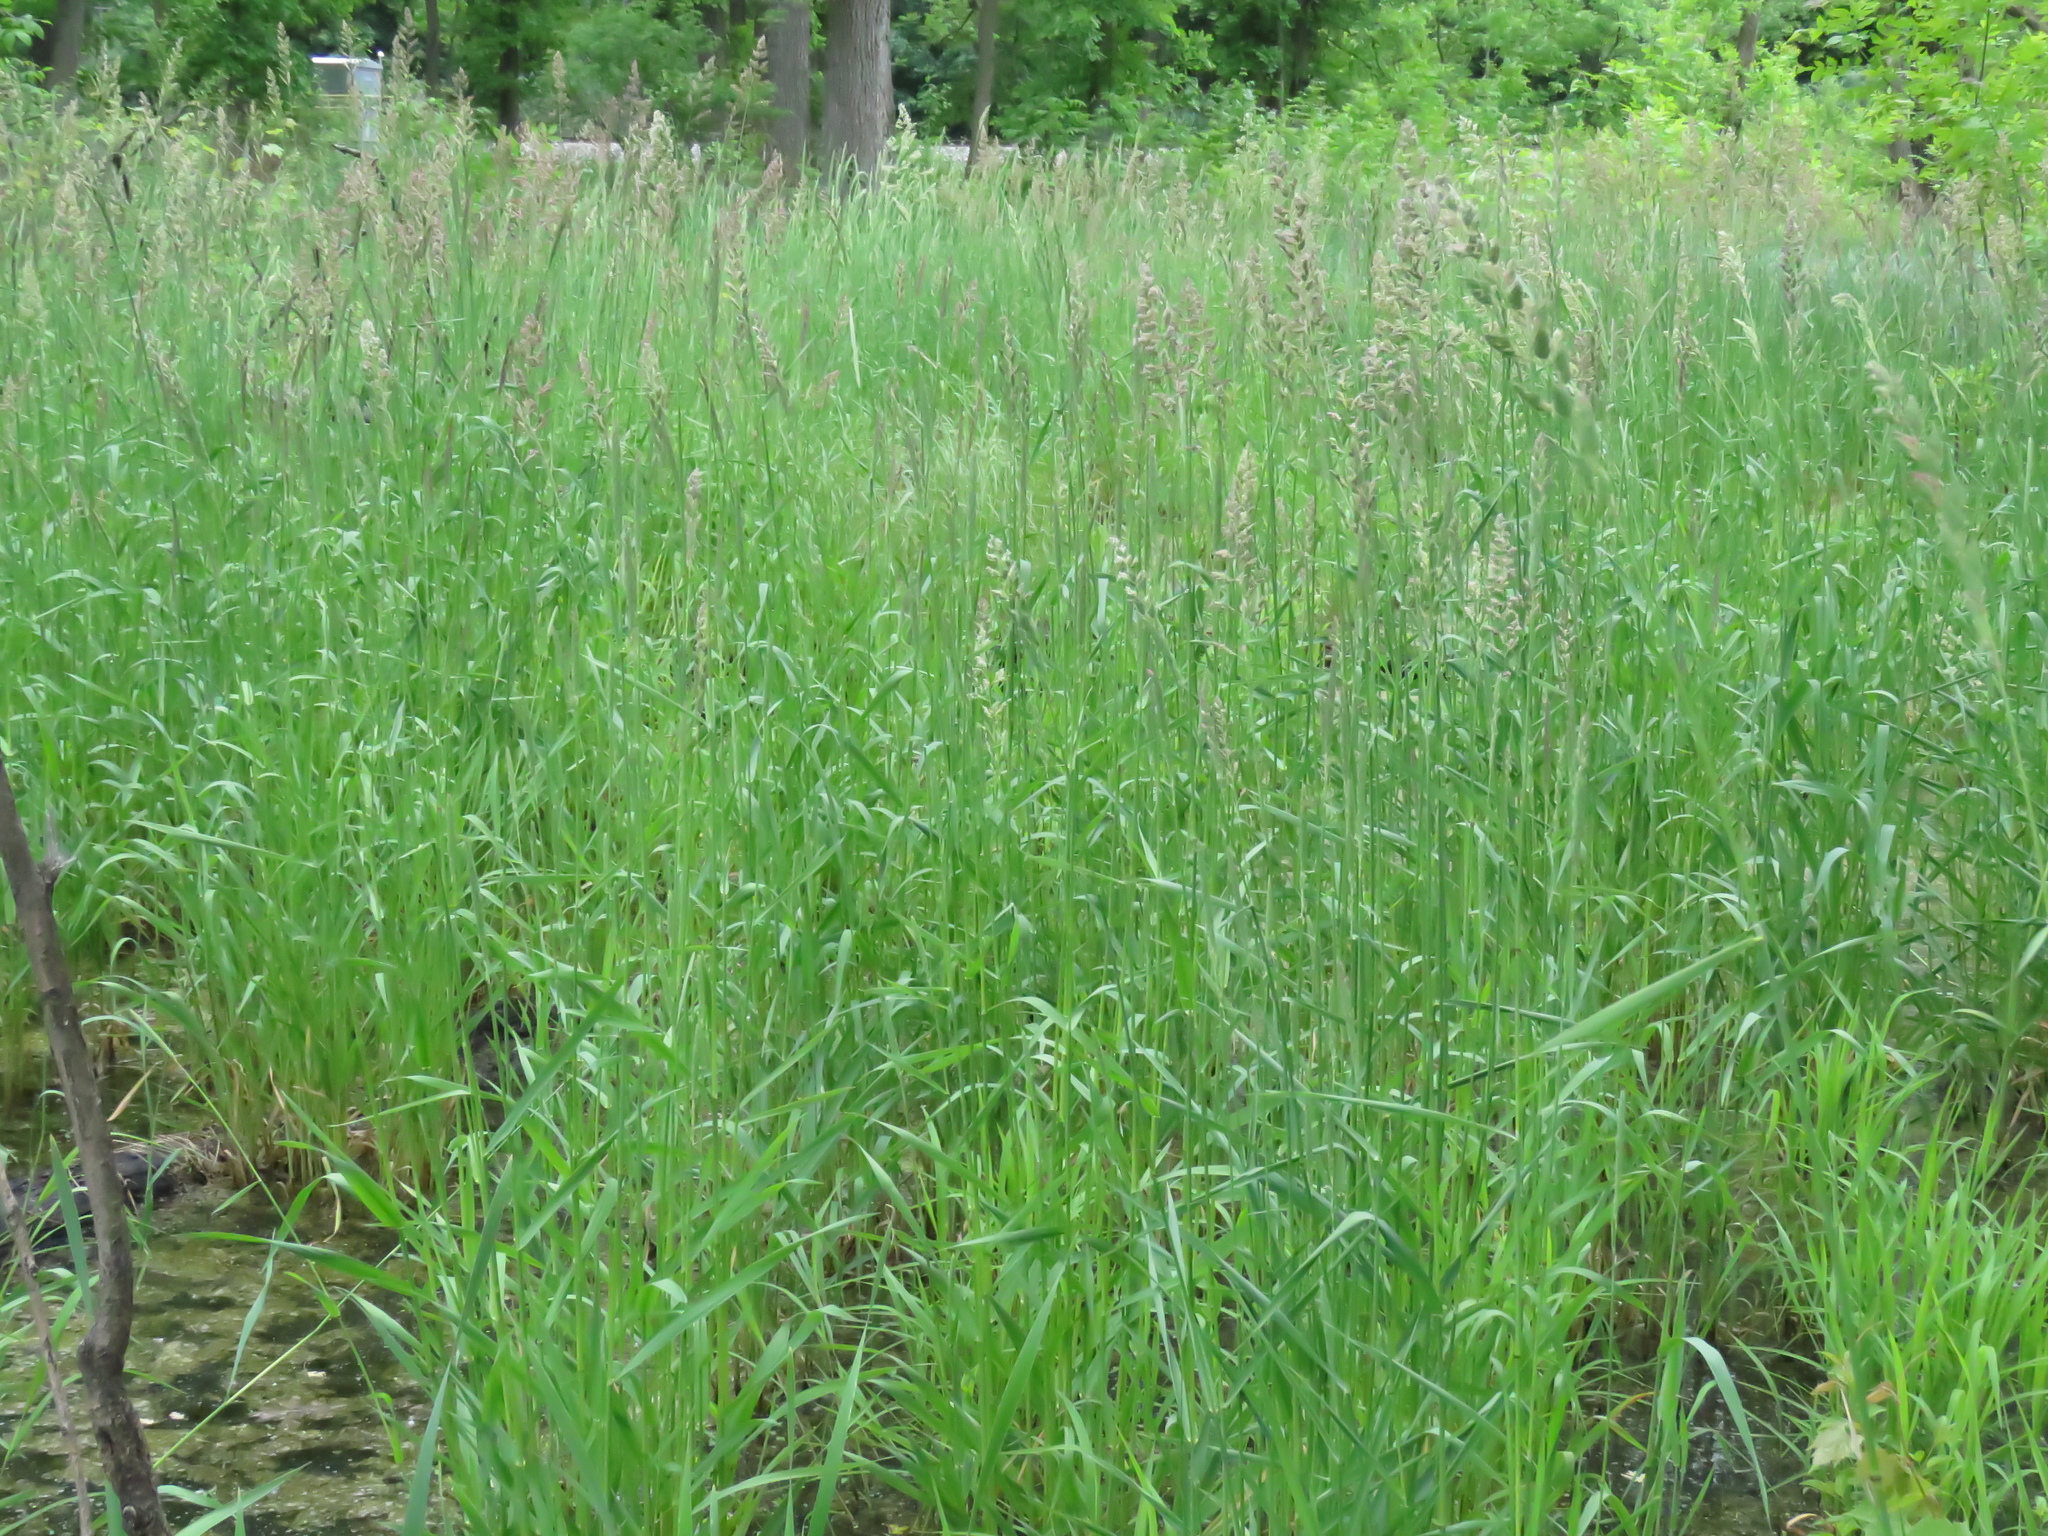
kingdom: Plantae
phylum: Tracheophyta
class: Liliopsida
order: Poales
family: Poaceae
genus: Phalaris
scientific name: Phalaris arundinacea
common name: Reed canary-grass
